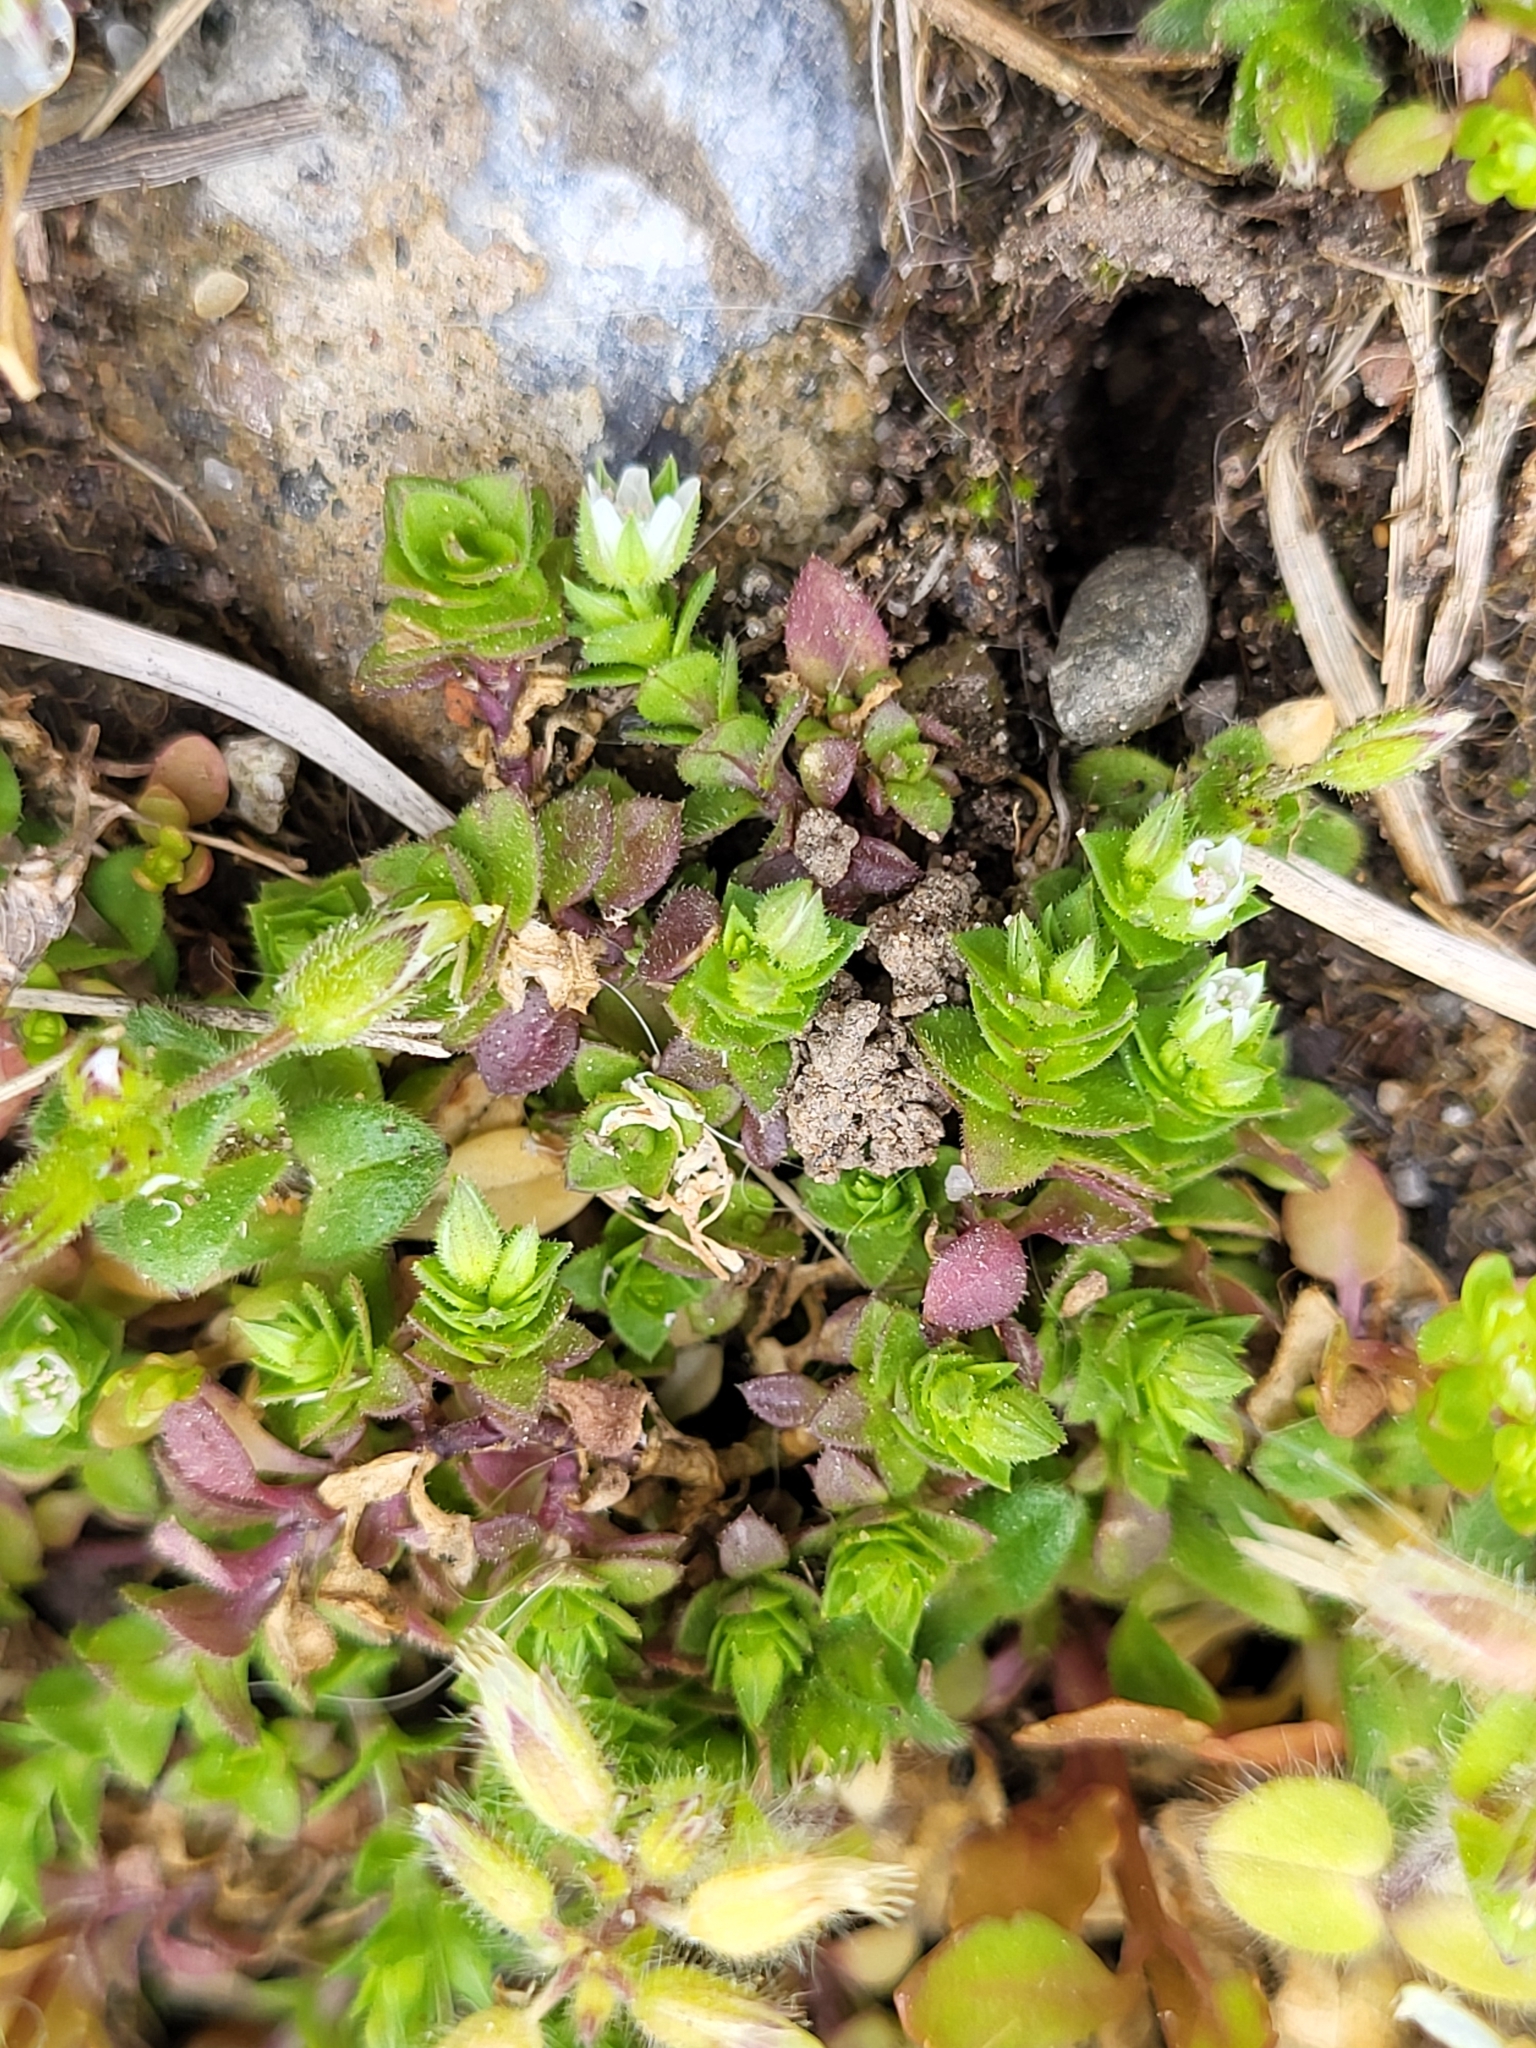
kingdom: Plantae
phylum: Tracheophyta
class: Magnoliopsida
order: Caryophyllales
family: Caryophyllaceae
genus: Arenaria
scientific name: Arenaria serpyllifolia
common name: Thyme-leaved sandwort
